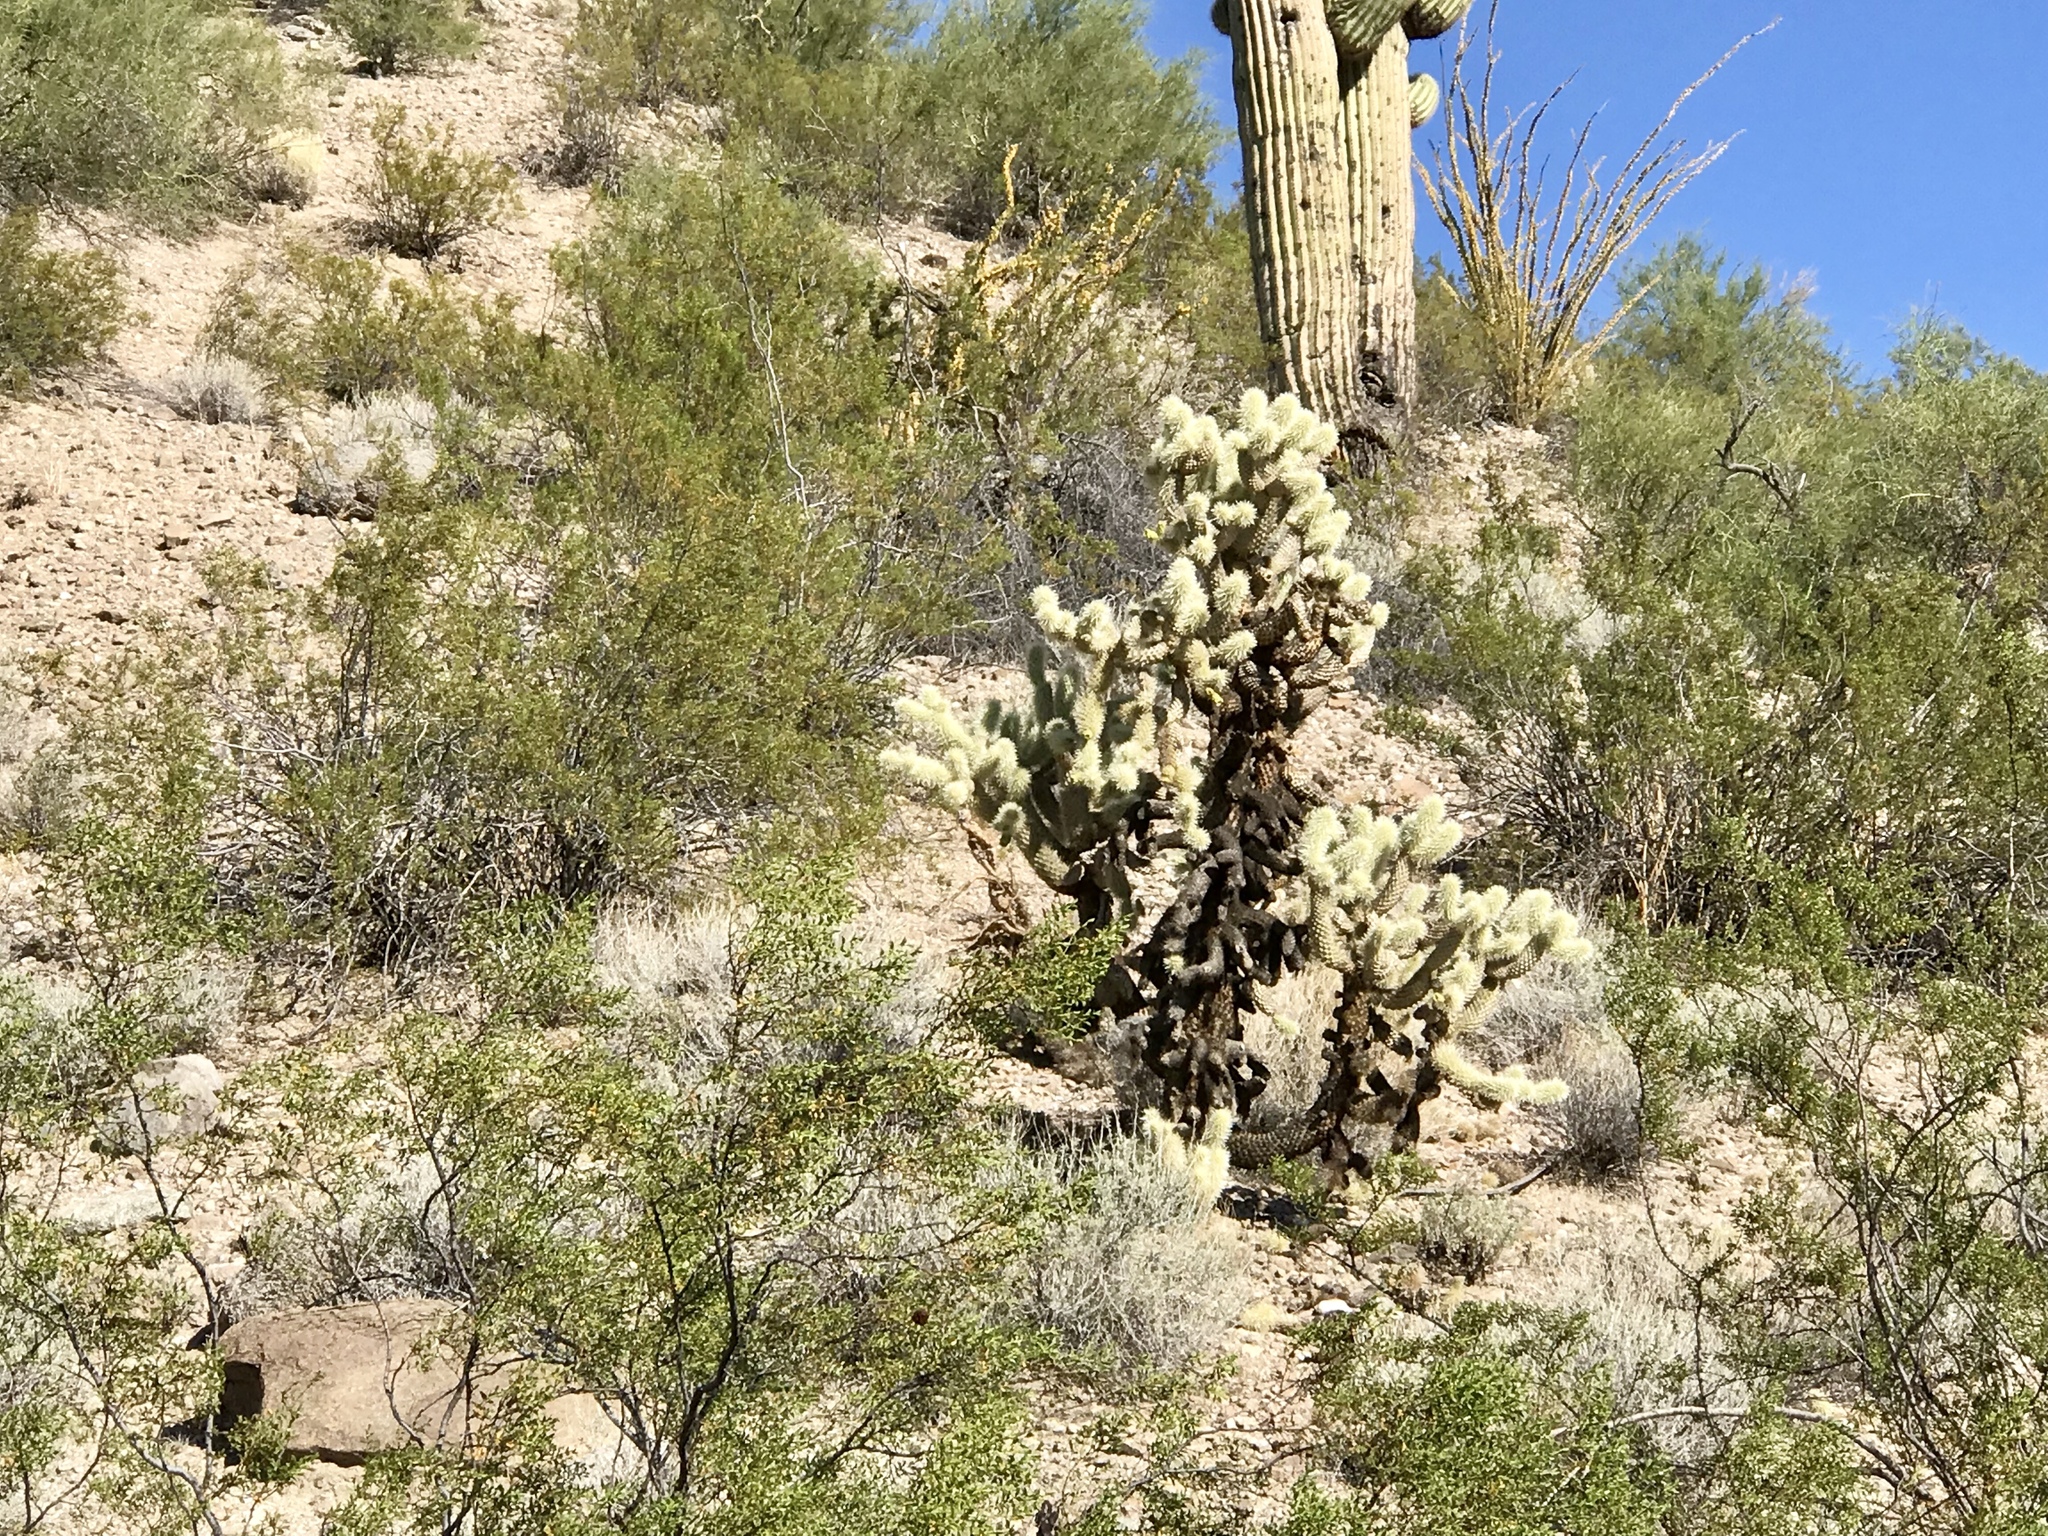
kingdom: Plantae
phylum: Tracheophyta
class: Magnoliopsida
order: Caryophyllales
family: Cactaceae
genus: Cylindropuntia
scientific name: Cylindropuntia fosbergii
